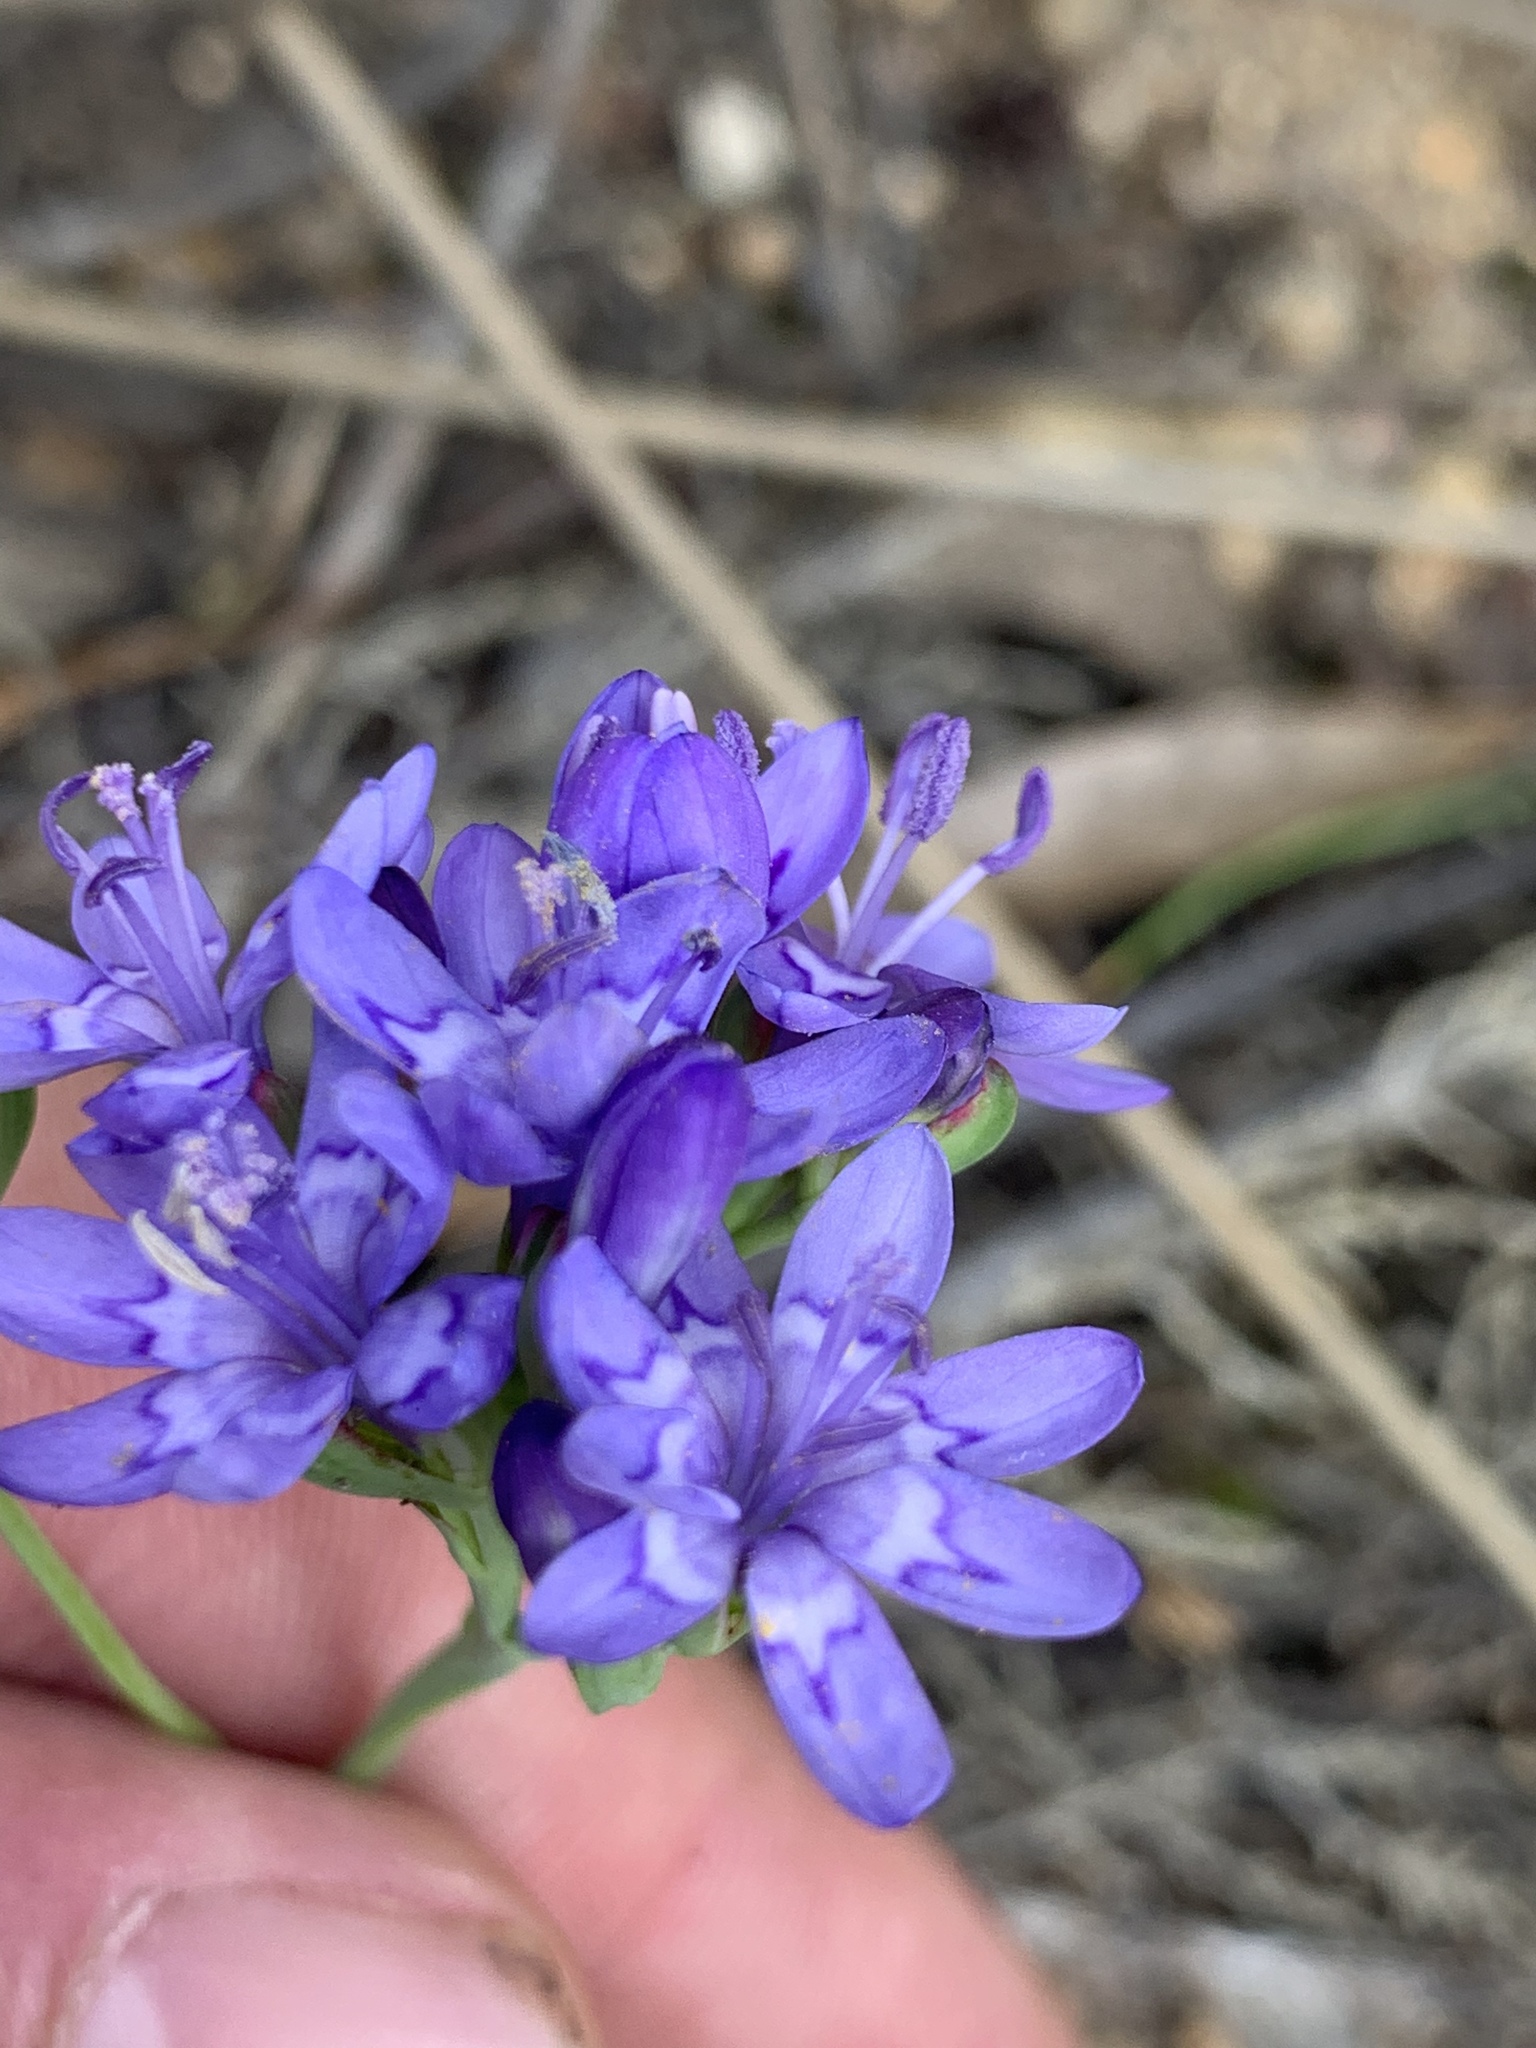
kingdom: Plantae
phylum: Tracheophyta
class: Liliopsida
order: Asparagales
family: Iridaceae
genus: Codonorhiza
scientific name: Codonorhiza corymbosa
